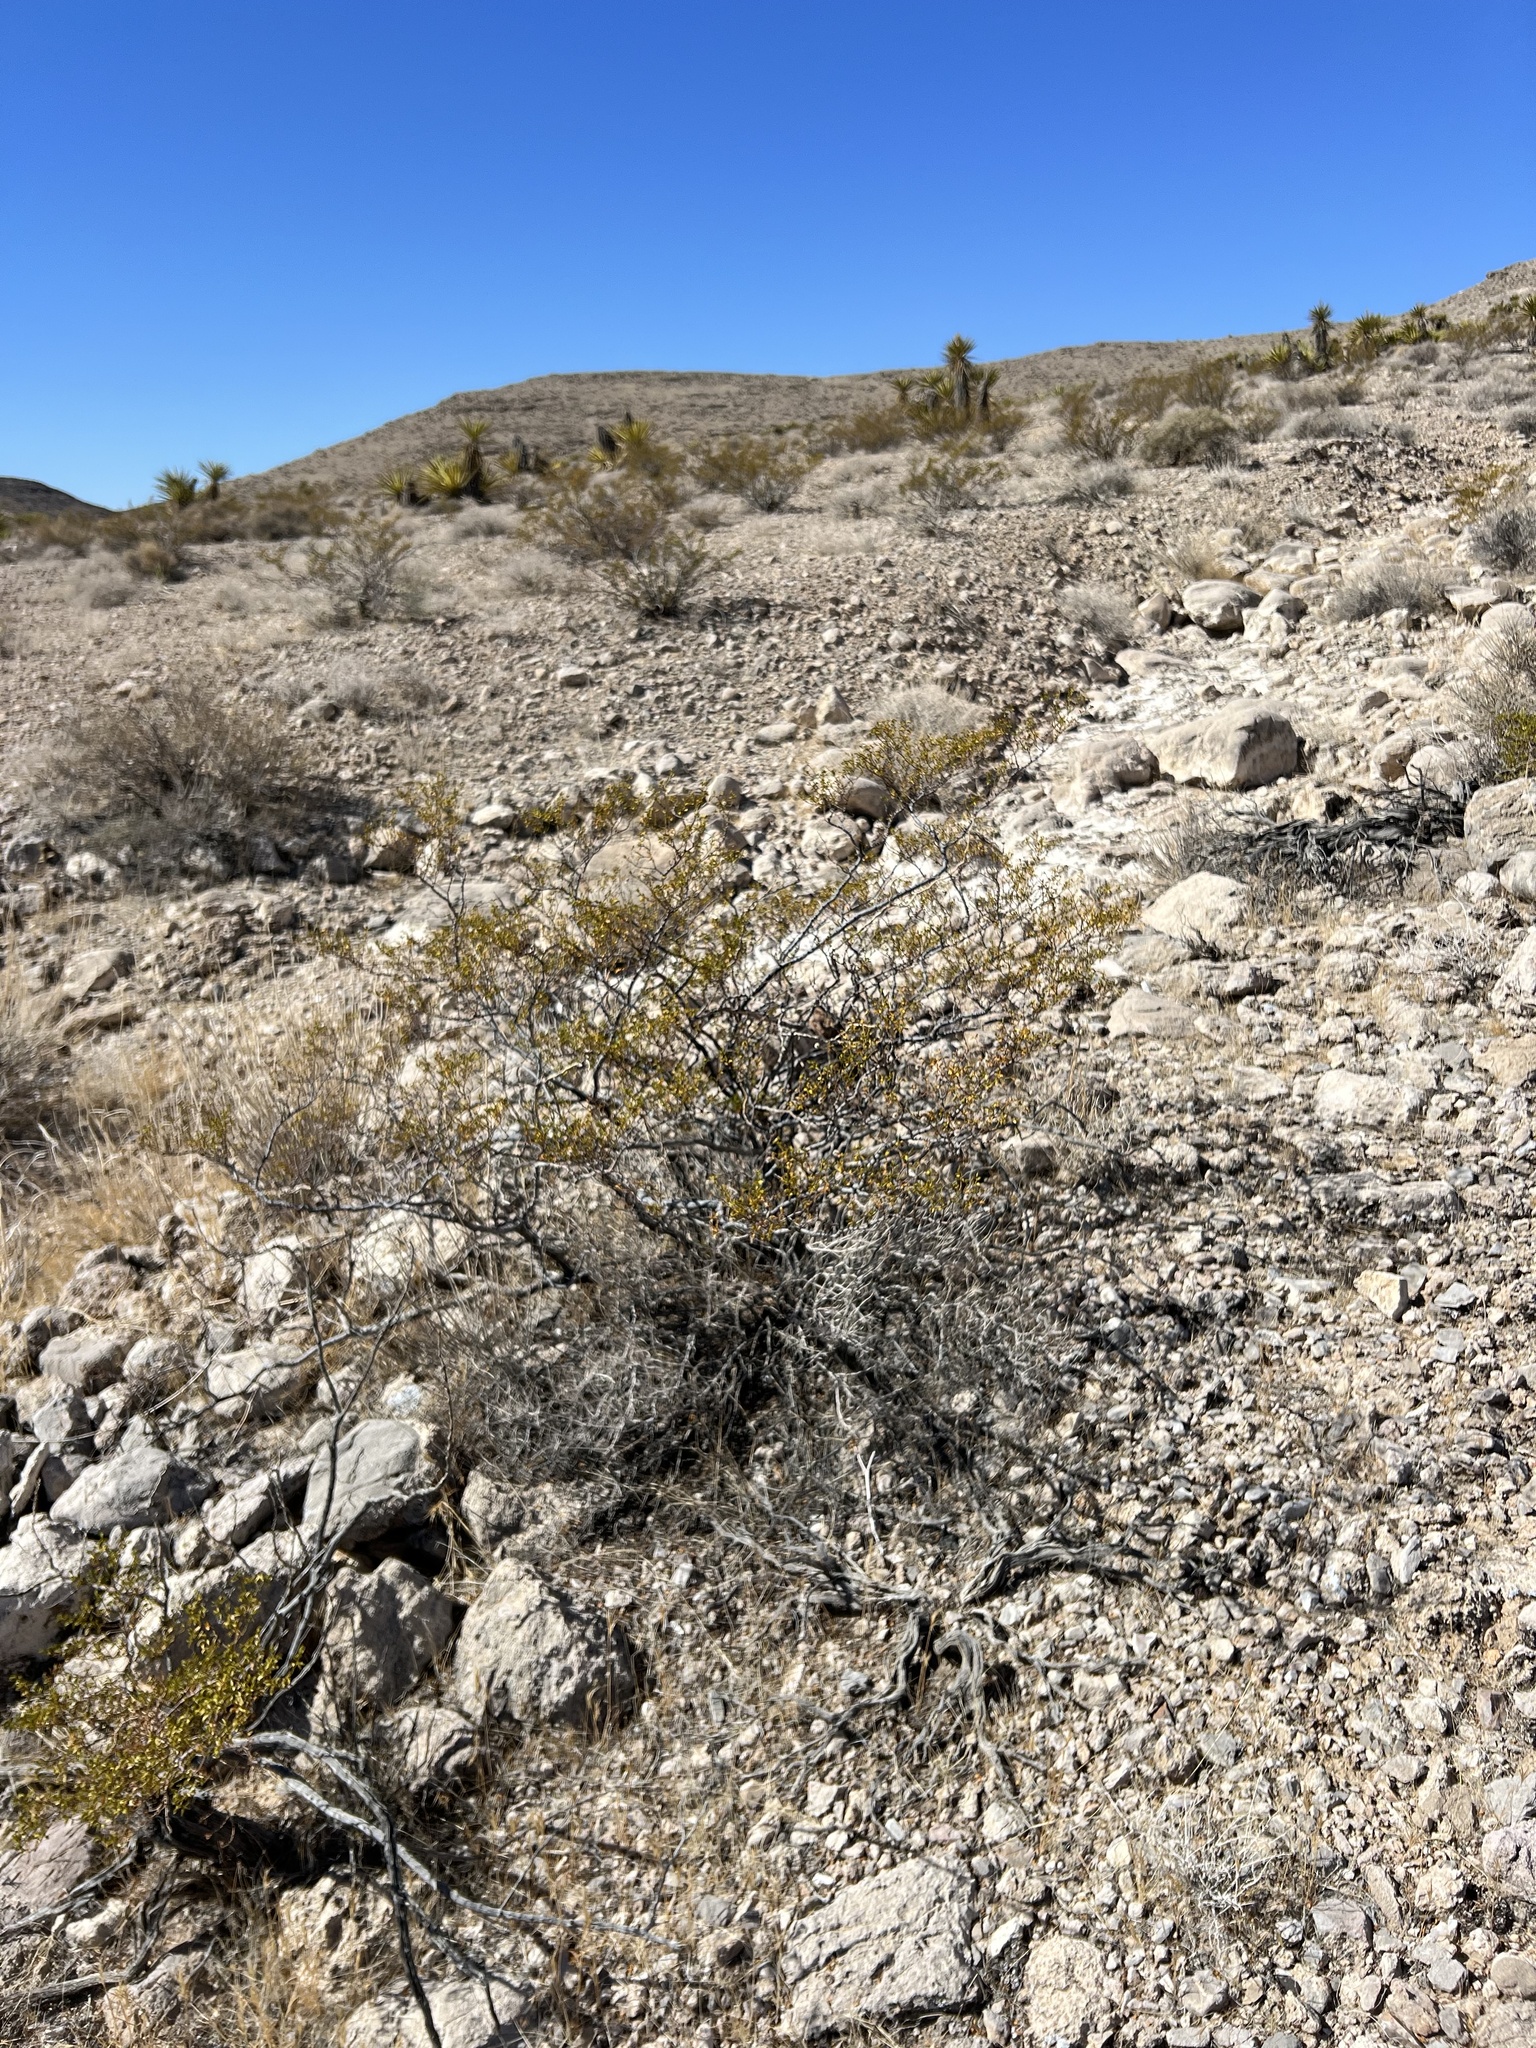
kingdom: Plantae
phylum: Tracheophyta
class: Magnoliopsida
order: Zygophyllales
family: Zygophyllaceae
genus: Larrea
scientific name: Larrea tridentata
